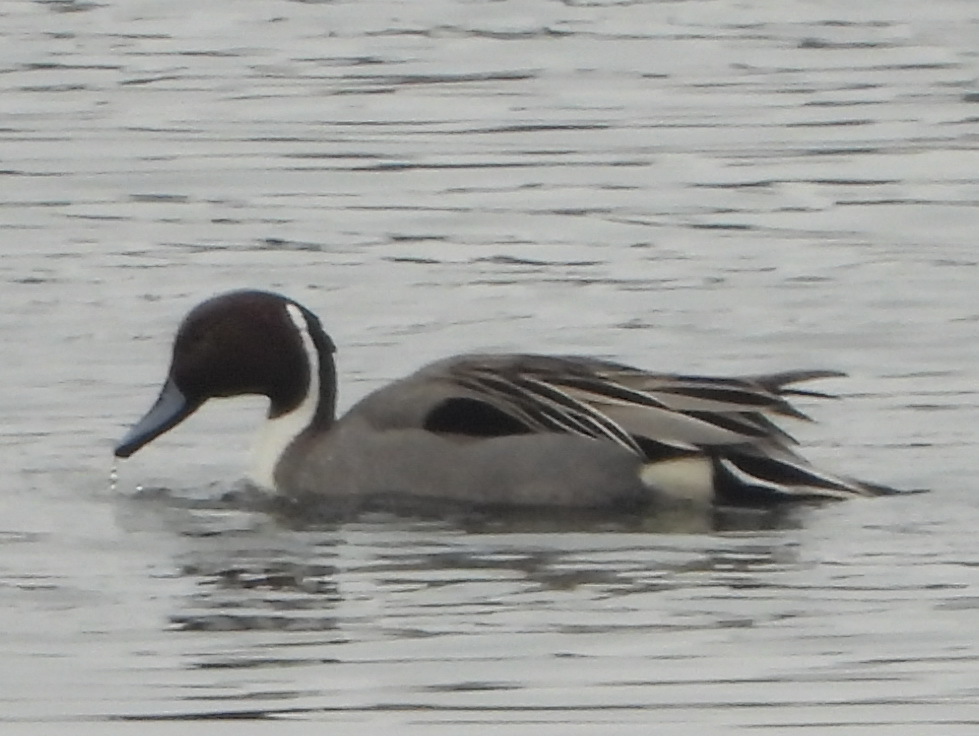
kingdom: Animalia
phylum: Chordata
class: Aves
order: Anseriformes
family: Anatidae
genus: Anas
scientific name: Anas acuta
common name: Northern pintail
